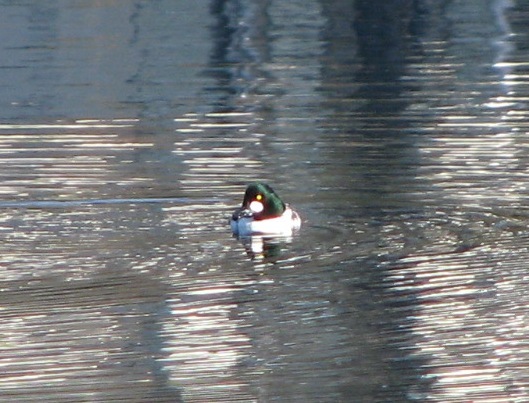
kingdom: Animalia
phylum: Chordata
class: Aves
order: Anseriformes
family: Anatidae
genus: Bucephala
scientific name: Bucephala clangula
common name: Common goldeneye
